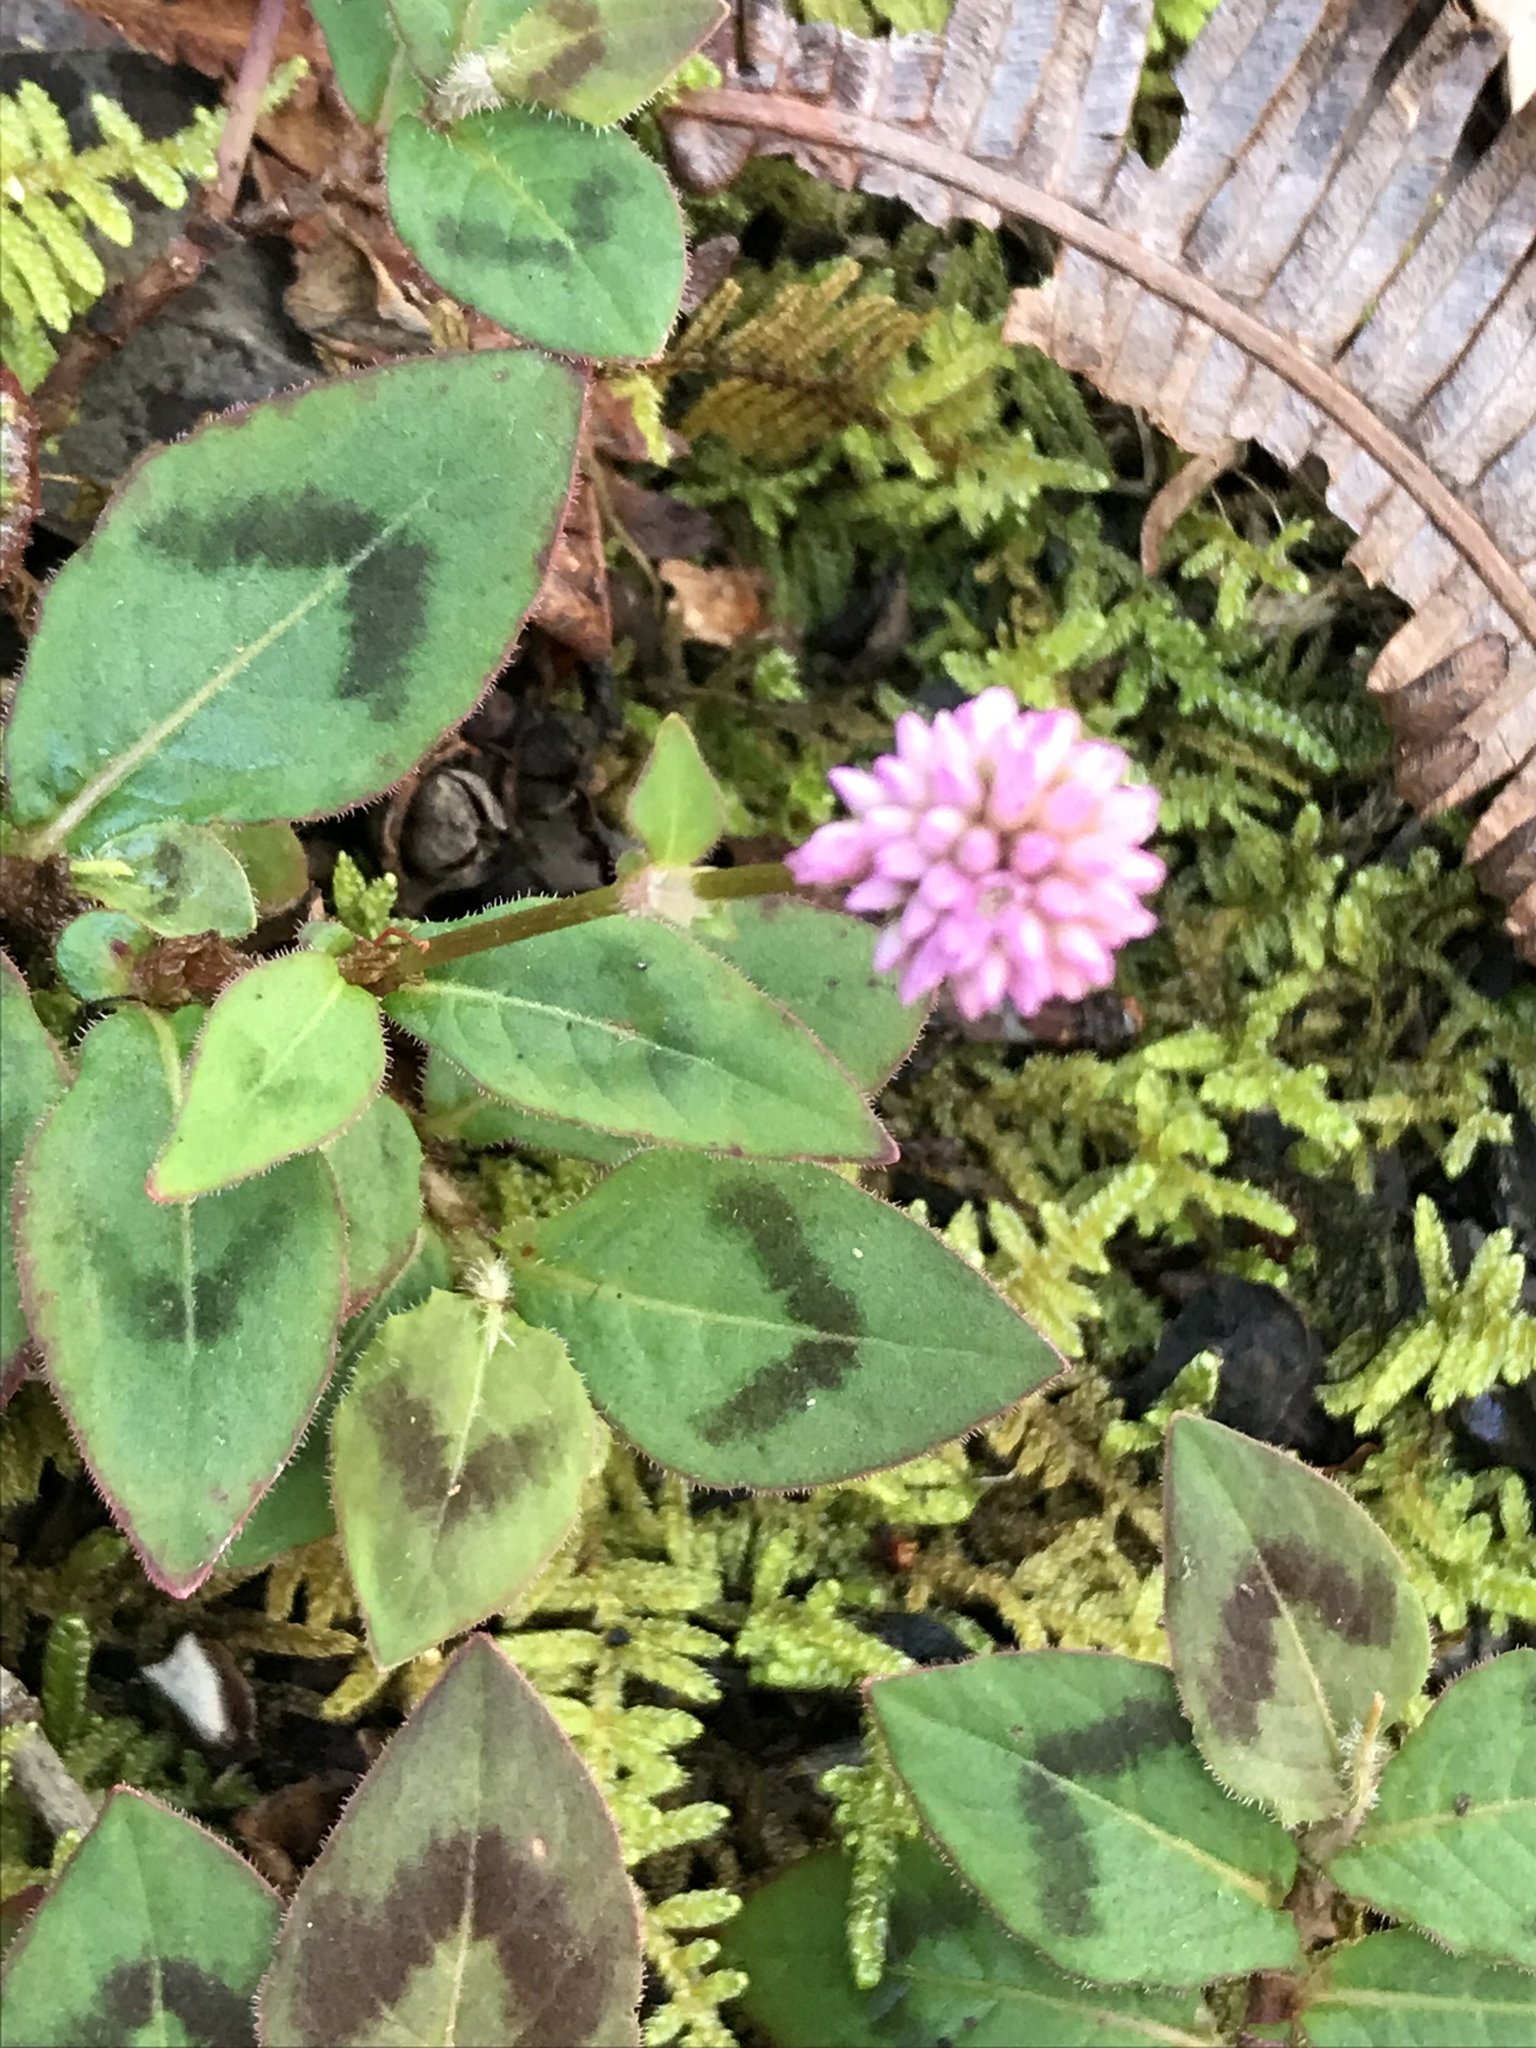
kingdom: Plantae
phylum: Tracheophyta
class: Magnoliopsida
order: Caryophyllales
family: Polygonaceae
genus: Persicaria
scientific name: Persicaria capitata
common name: Pinkhead smartweed
